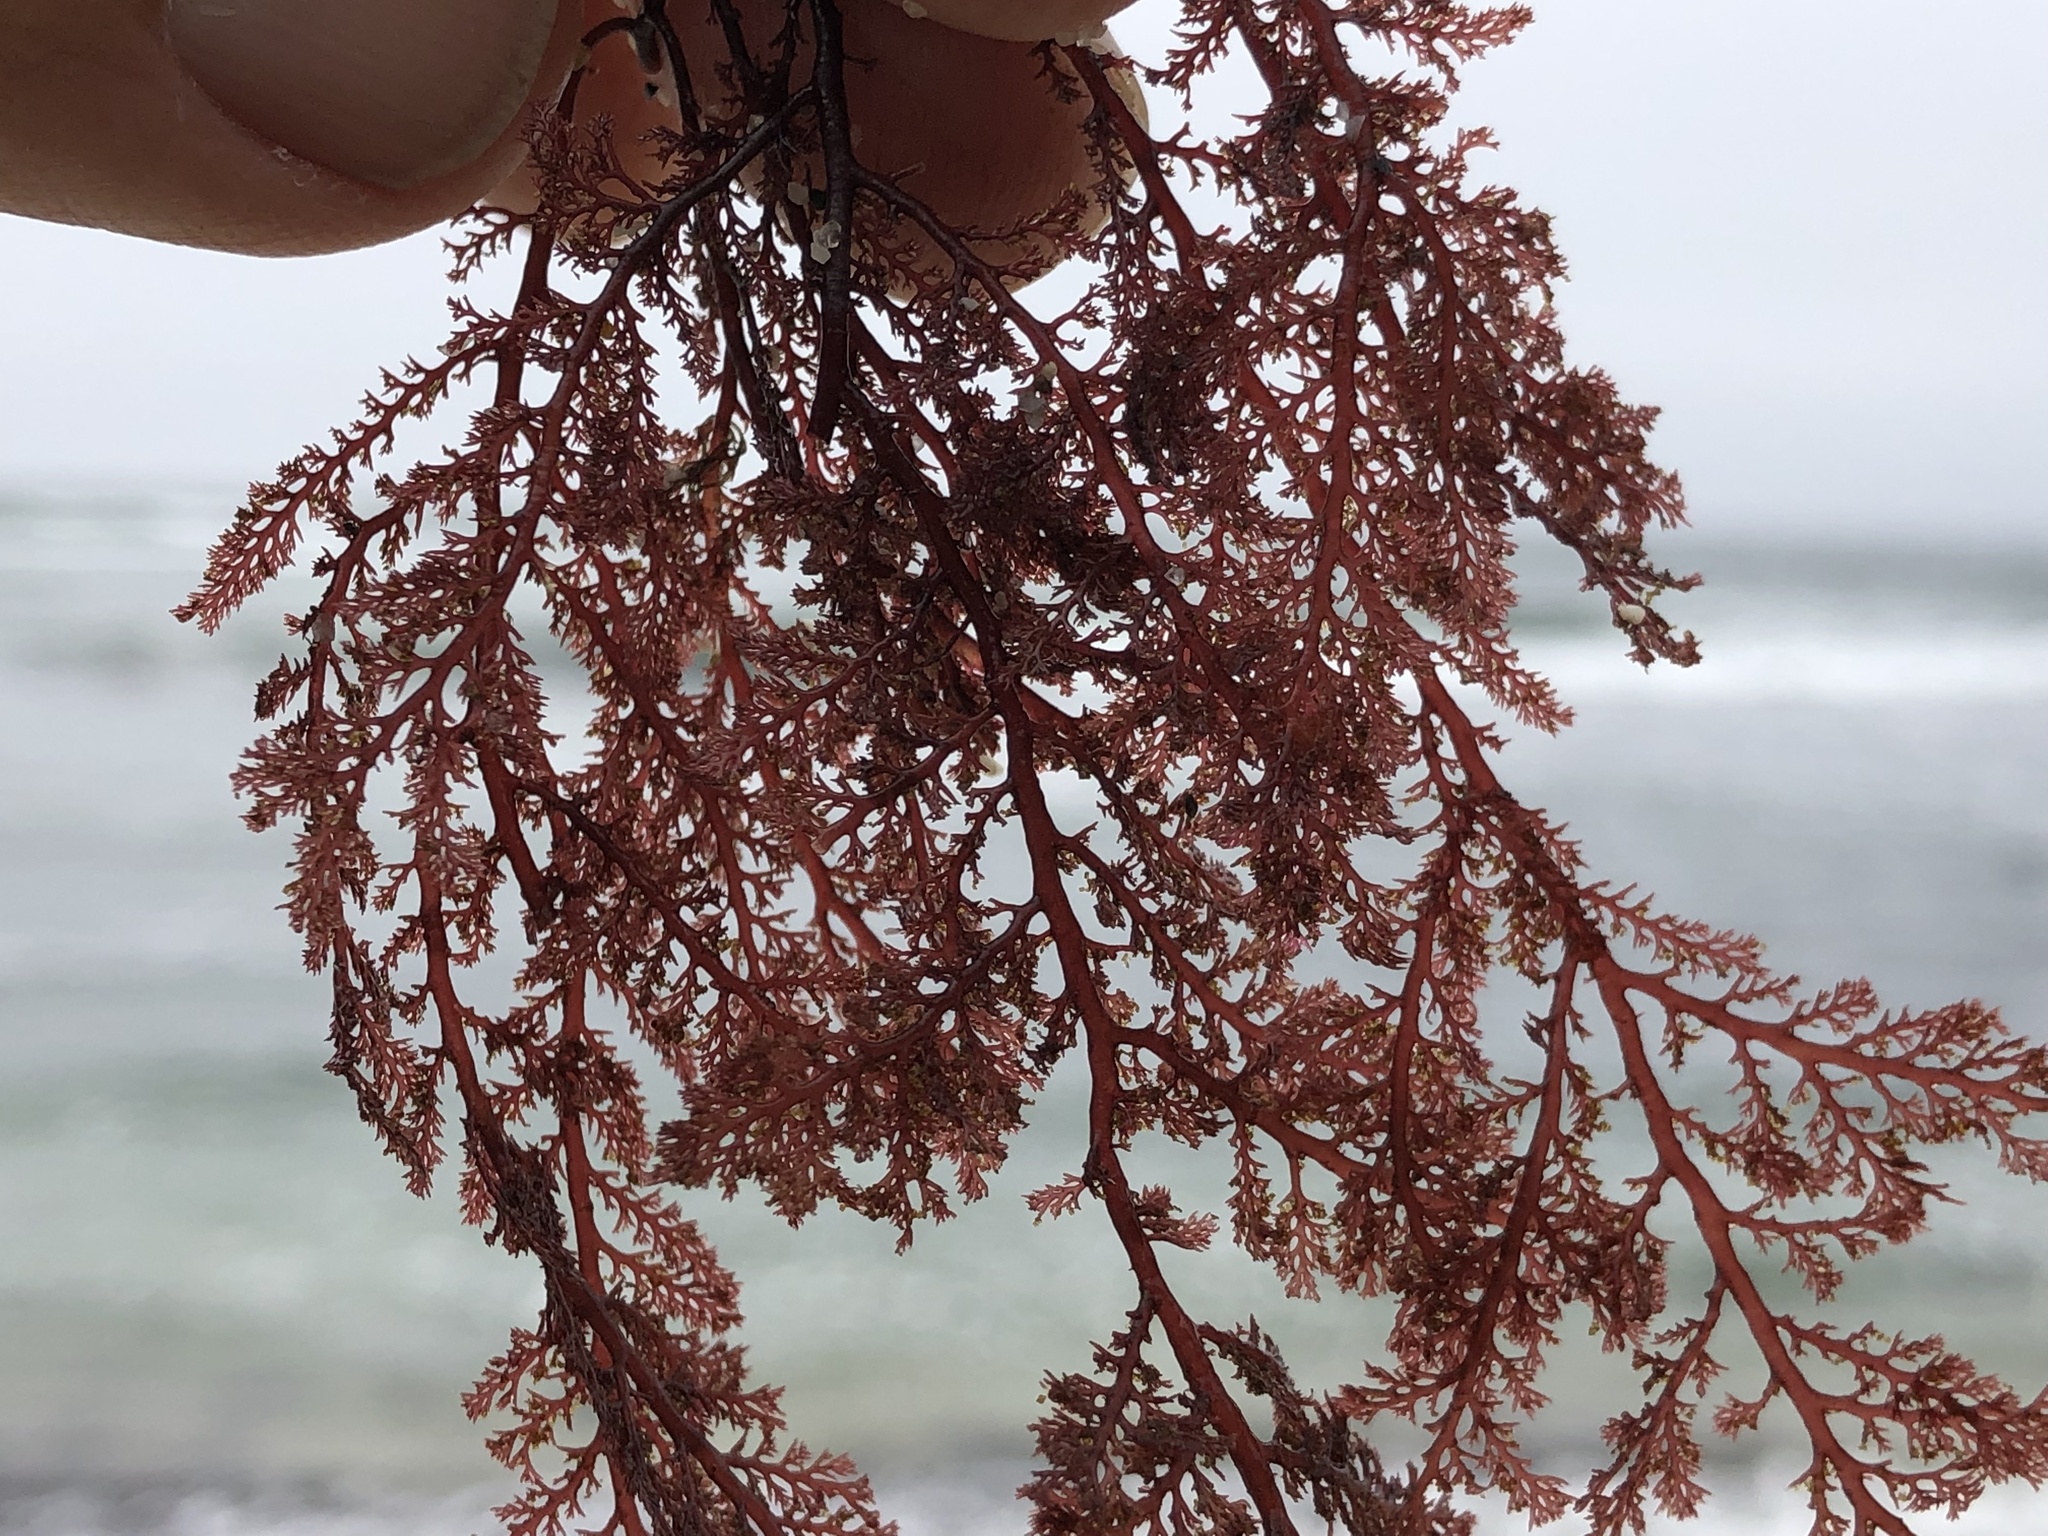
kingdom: Plantae
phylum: Rhodophyta
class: Florideophyceae
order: Ceramiales
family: Ceramiaceae
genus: Microcladia
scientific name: Microcladia coulteri
